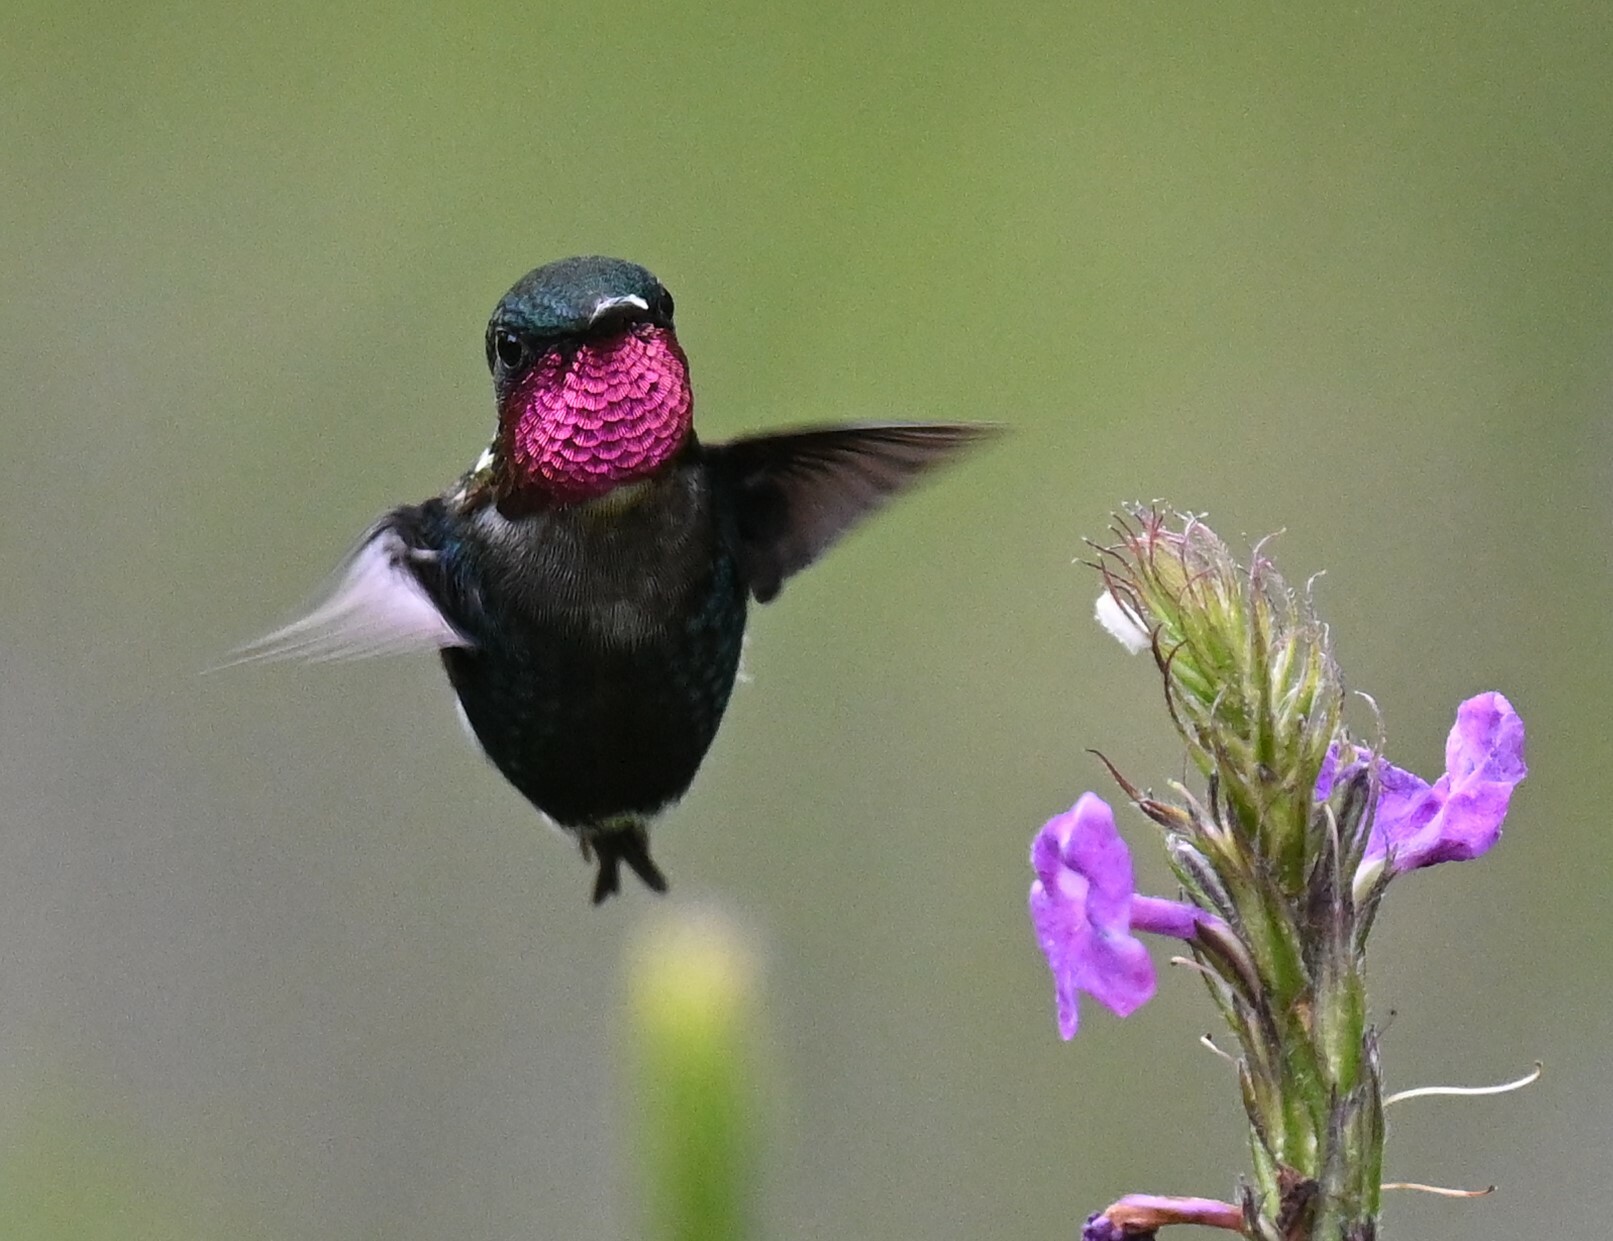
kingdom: Animalia
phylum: Chordata
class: Aves
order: Apodiformes
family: Trochilidae
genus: Chaetocercus
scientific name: Chaetocercus heliodor
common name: Gorgeted woodstar
